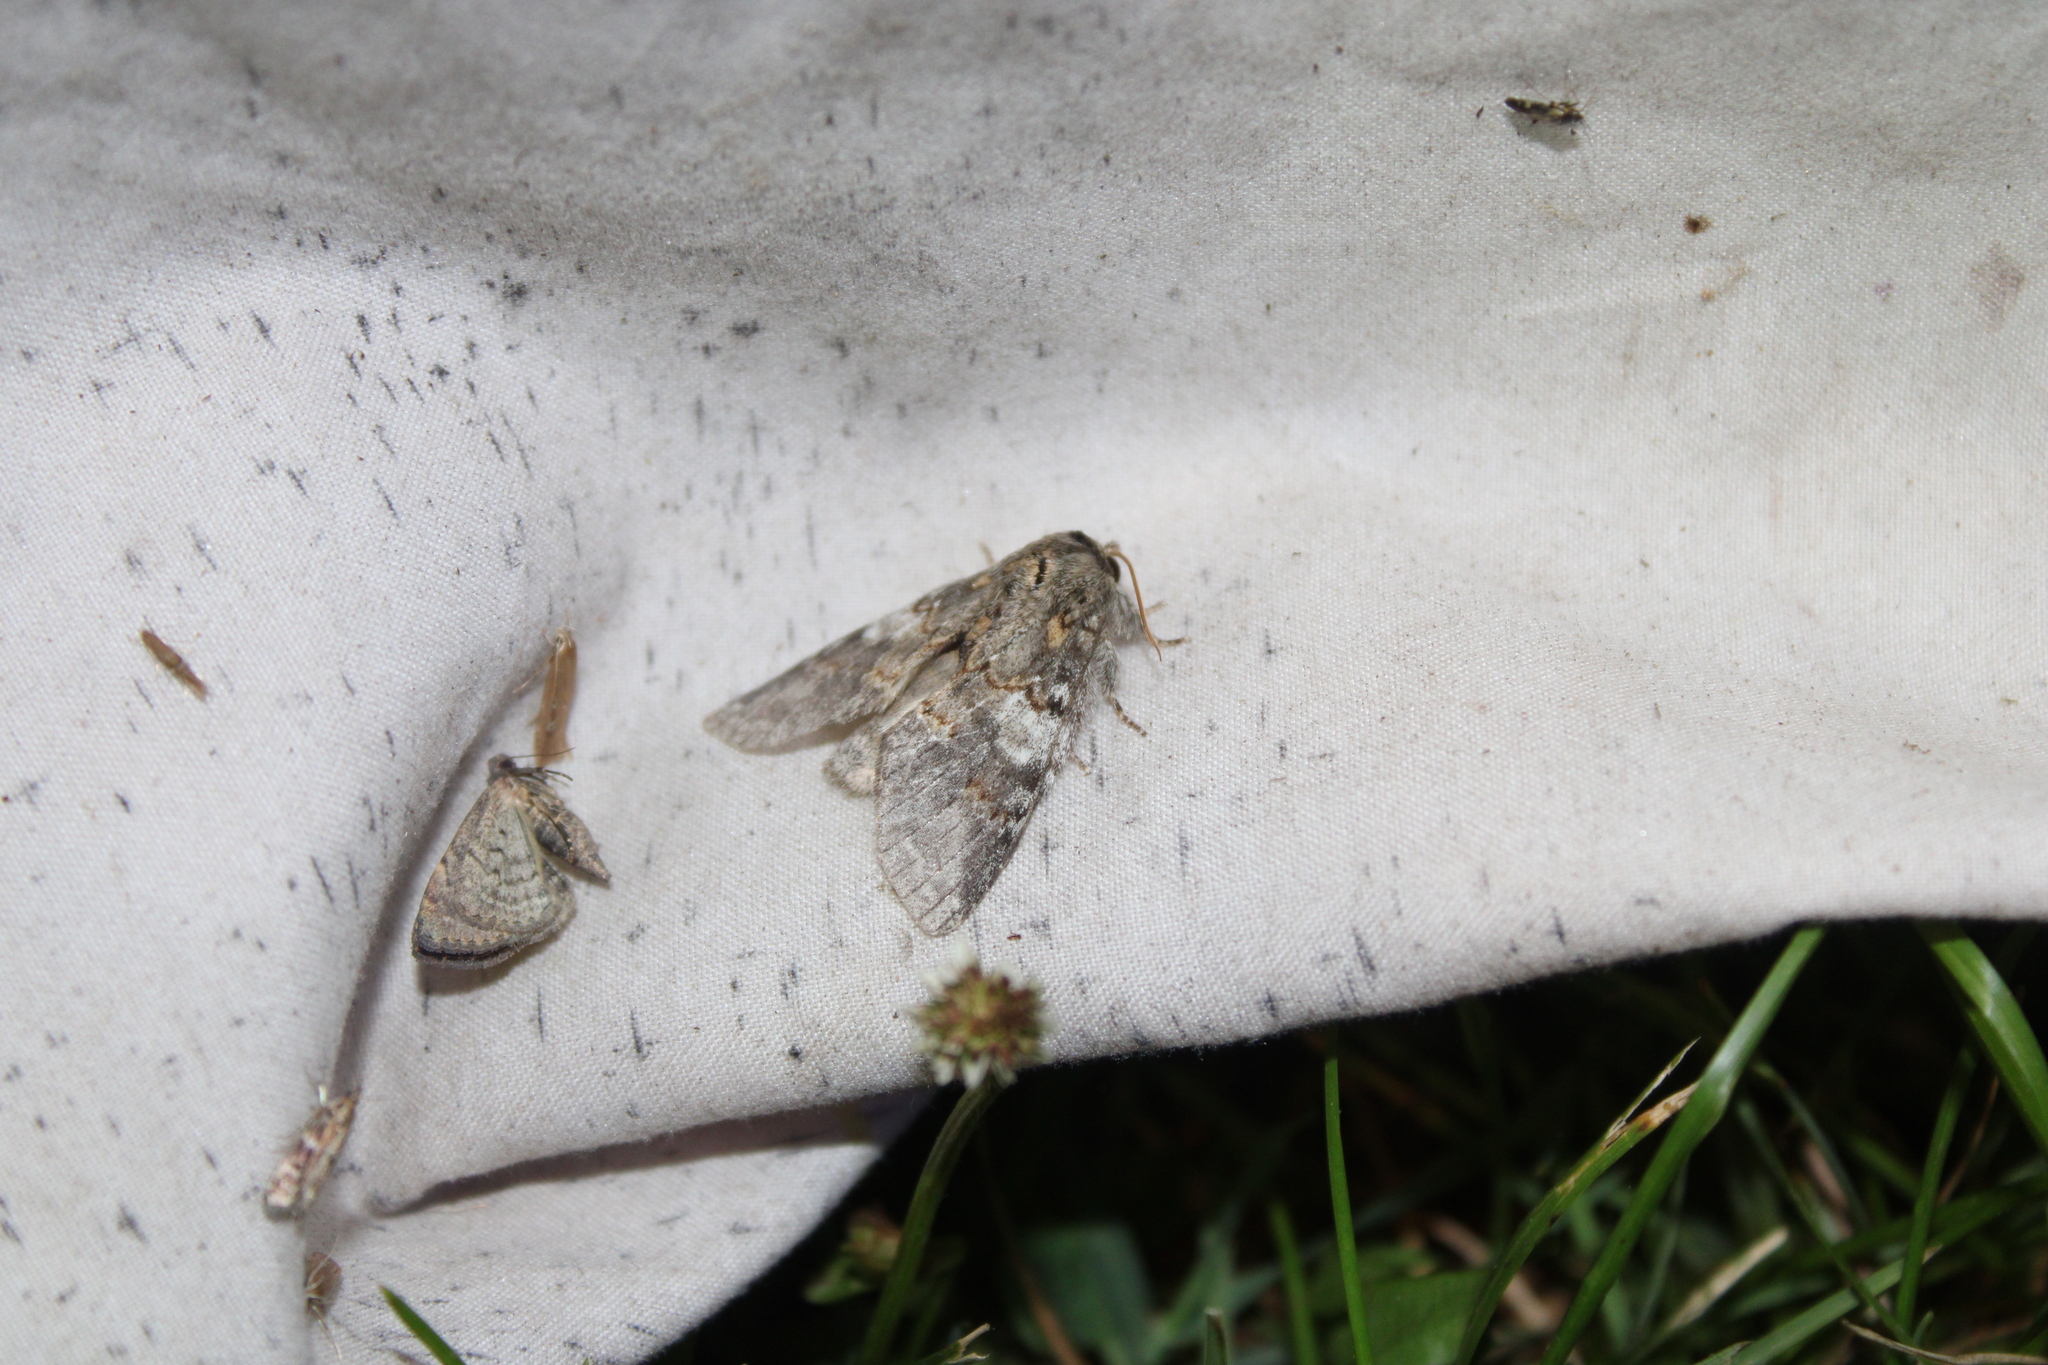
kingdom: Animalia
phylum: Arthropoda
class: Insecta
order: Lepidoptera
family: Notodontidae
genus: Peridea
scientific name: Peridea angulosa
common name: Angulose prominent
